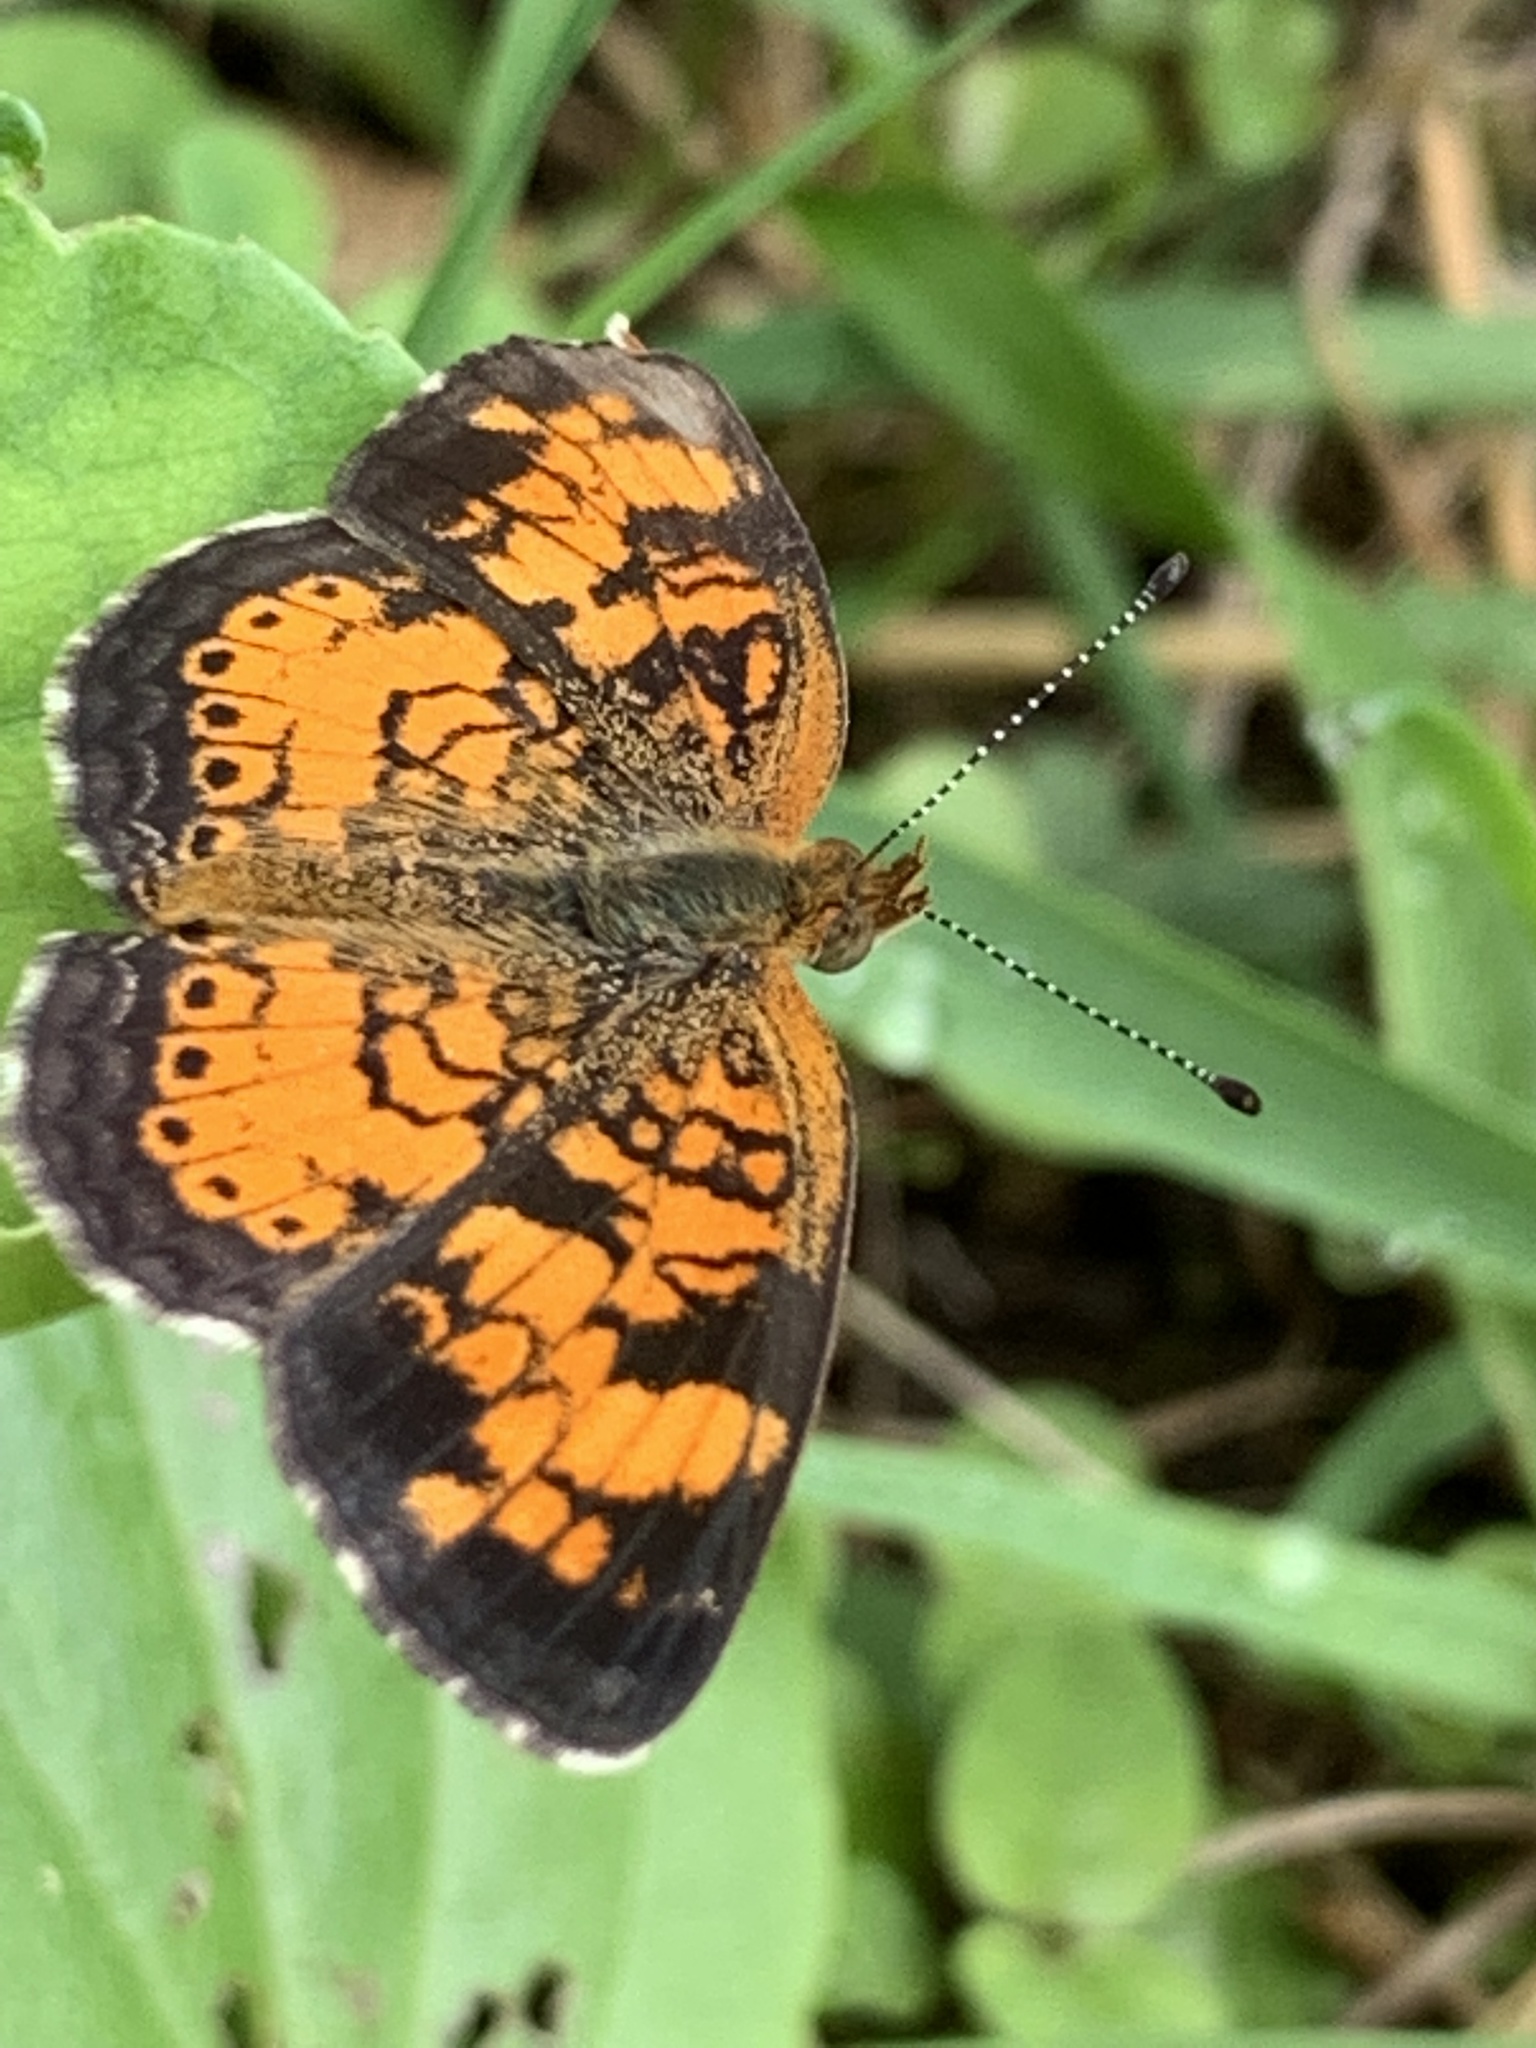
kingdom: Animalia
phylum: Arthropoda
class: Insecta
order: Lepidoptera
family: Nymphalidae
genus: Phyciodes
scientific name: Phyciodes tharos
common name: Pearl crescent
